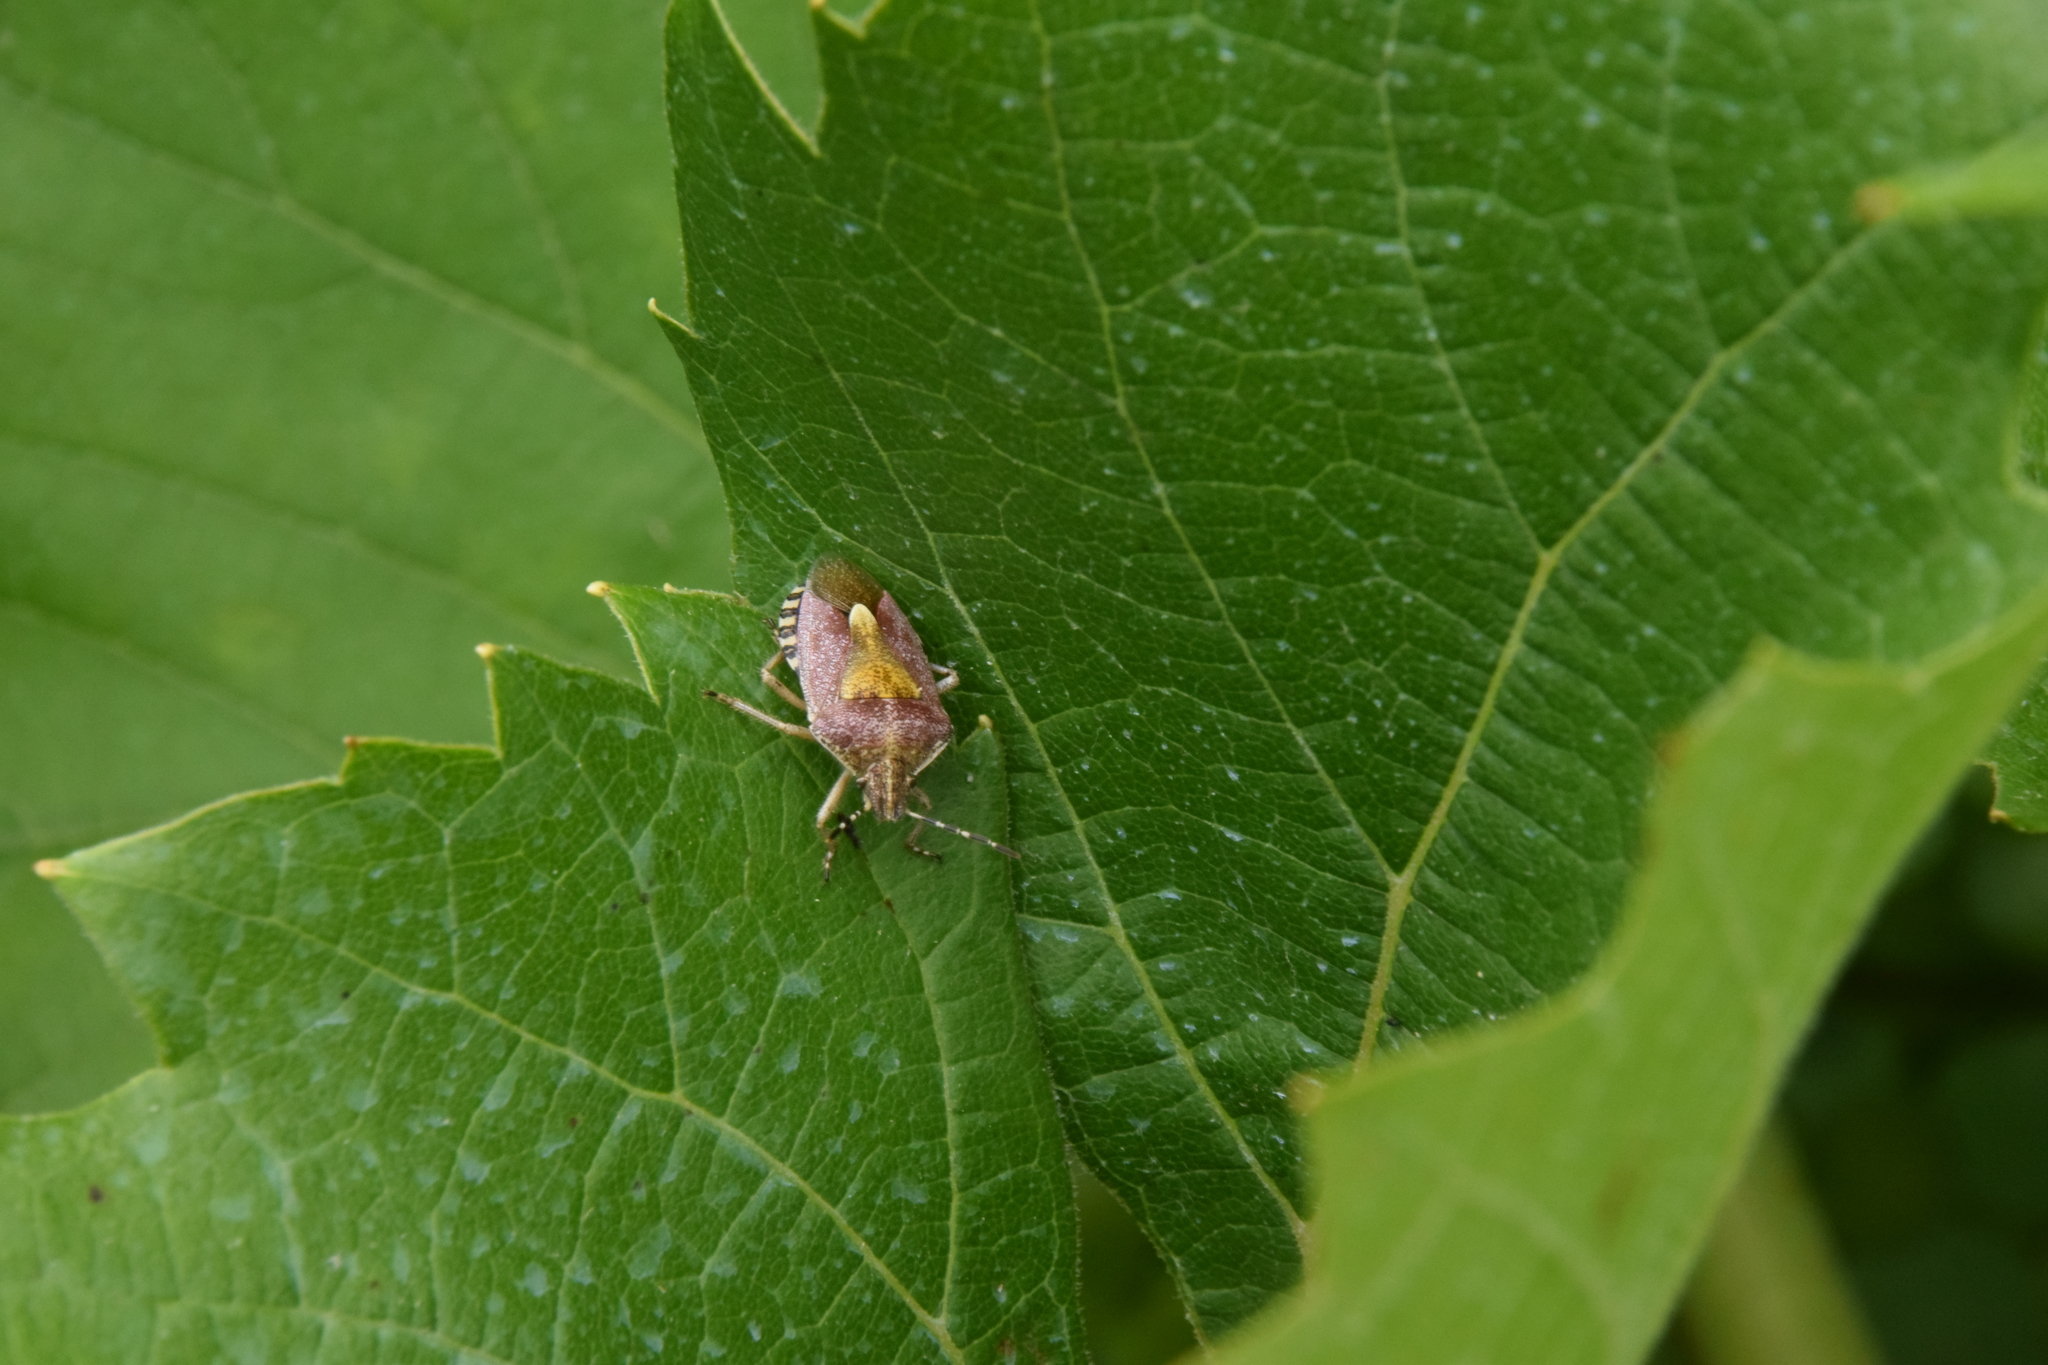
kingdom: Animalia
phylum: Arthropoda
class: Insecta
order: Hemiptera
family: Pentatomidae
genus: Dolycoris
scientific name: Dolycoris baccarum
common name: Sloe bug
